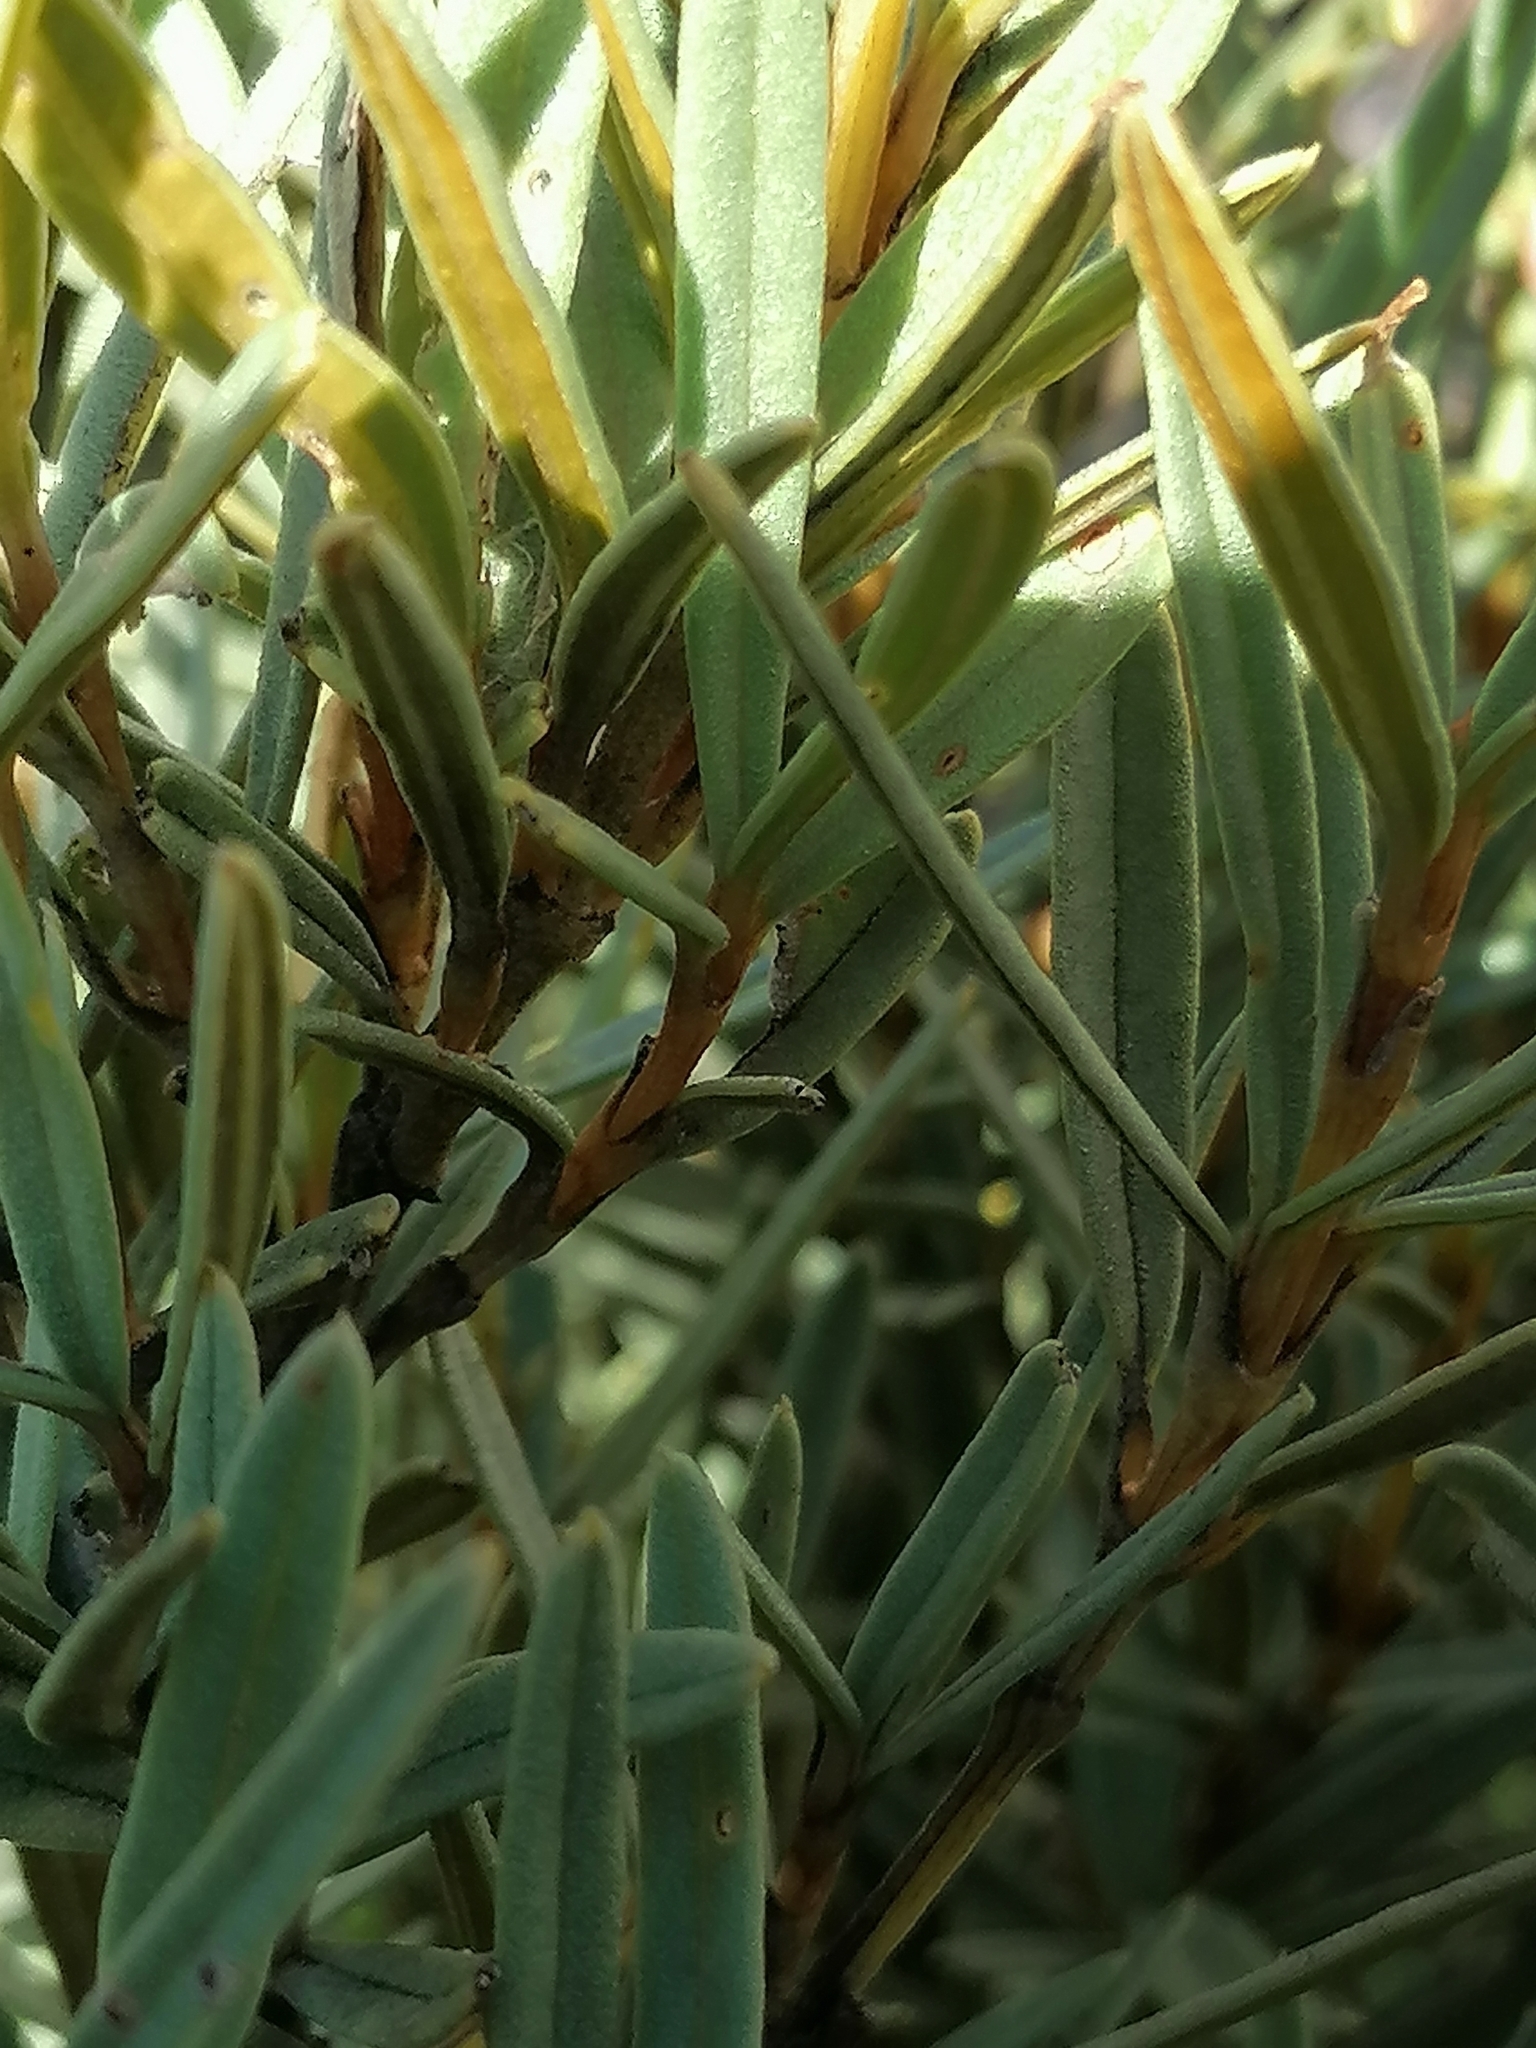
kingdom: Plantae
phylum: Tracheophyta
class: Magnoliopsida
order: Cornales
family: Grubbiaceae
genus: Grubbia
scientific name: Grubbia tomentosa
